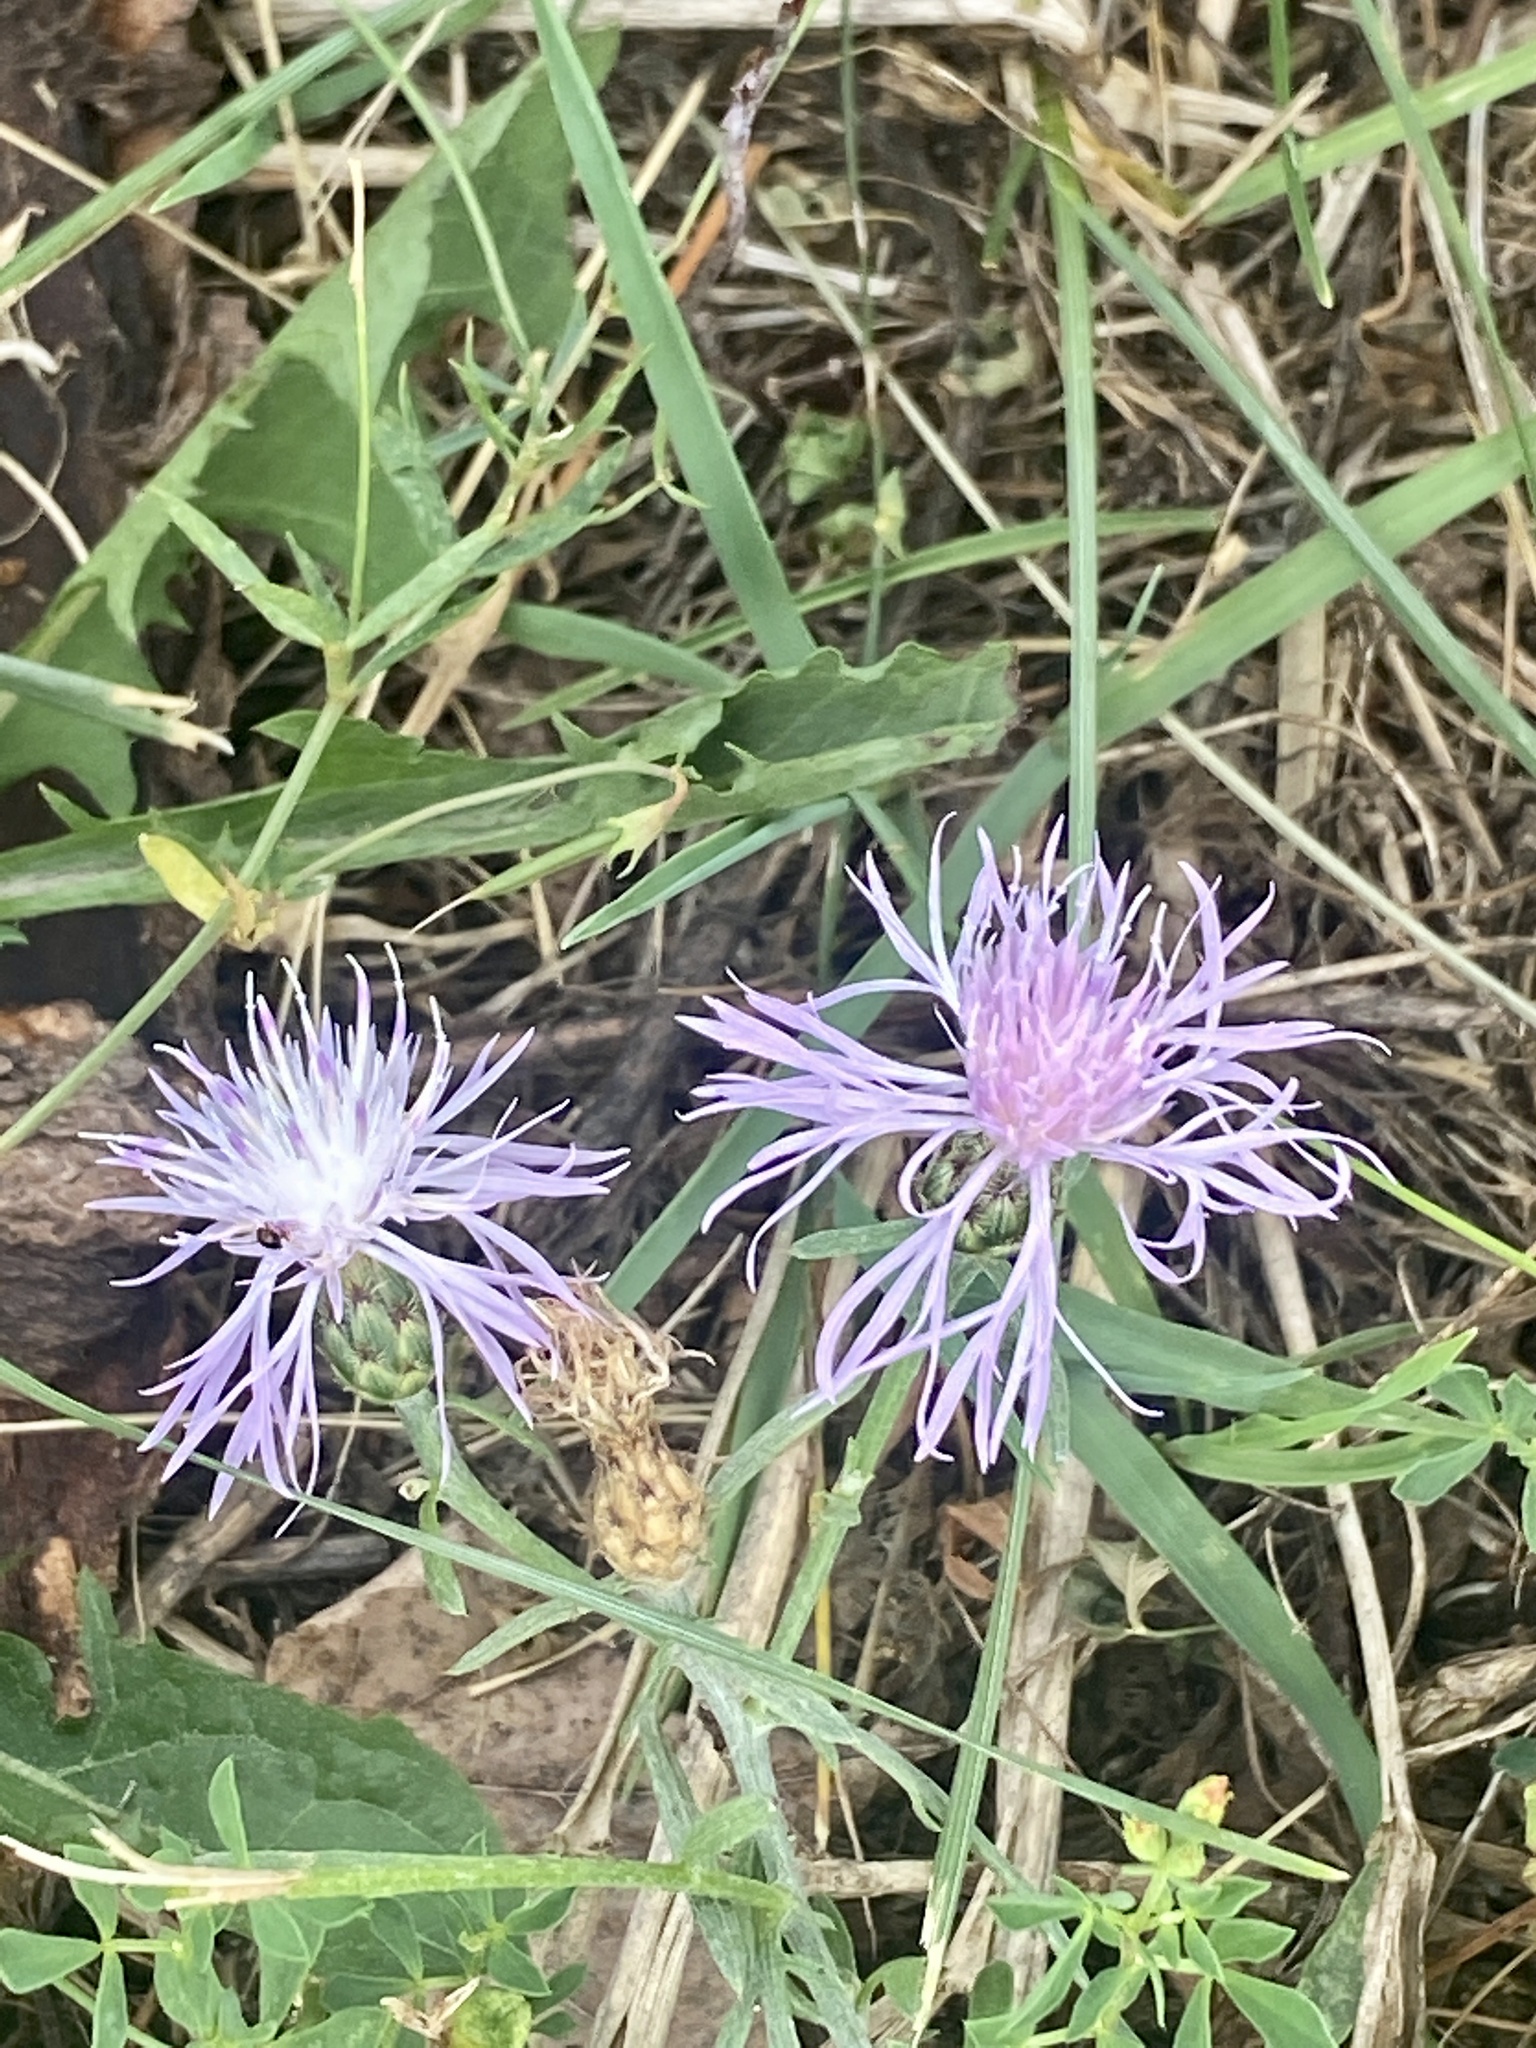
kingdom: Plantae
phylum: Tracheophyta
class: Magnoliopsida
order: Asterales
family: Asteraceae
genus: Centaurea
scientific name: Centaurea stoebe
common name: Spotted knapweed
